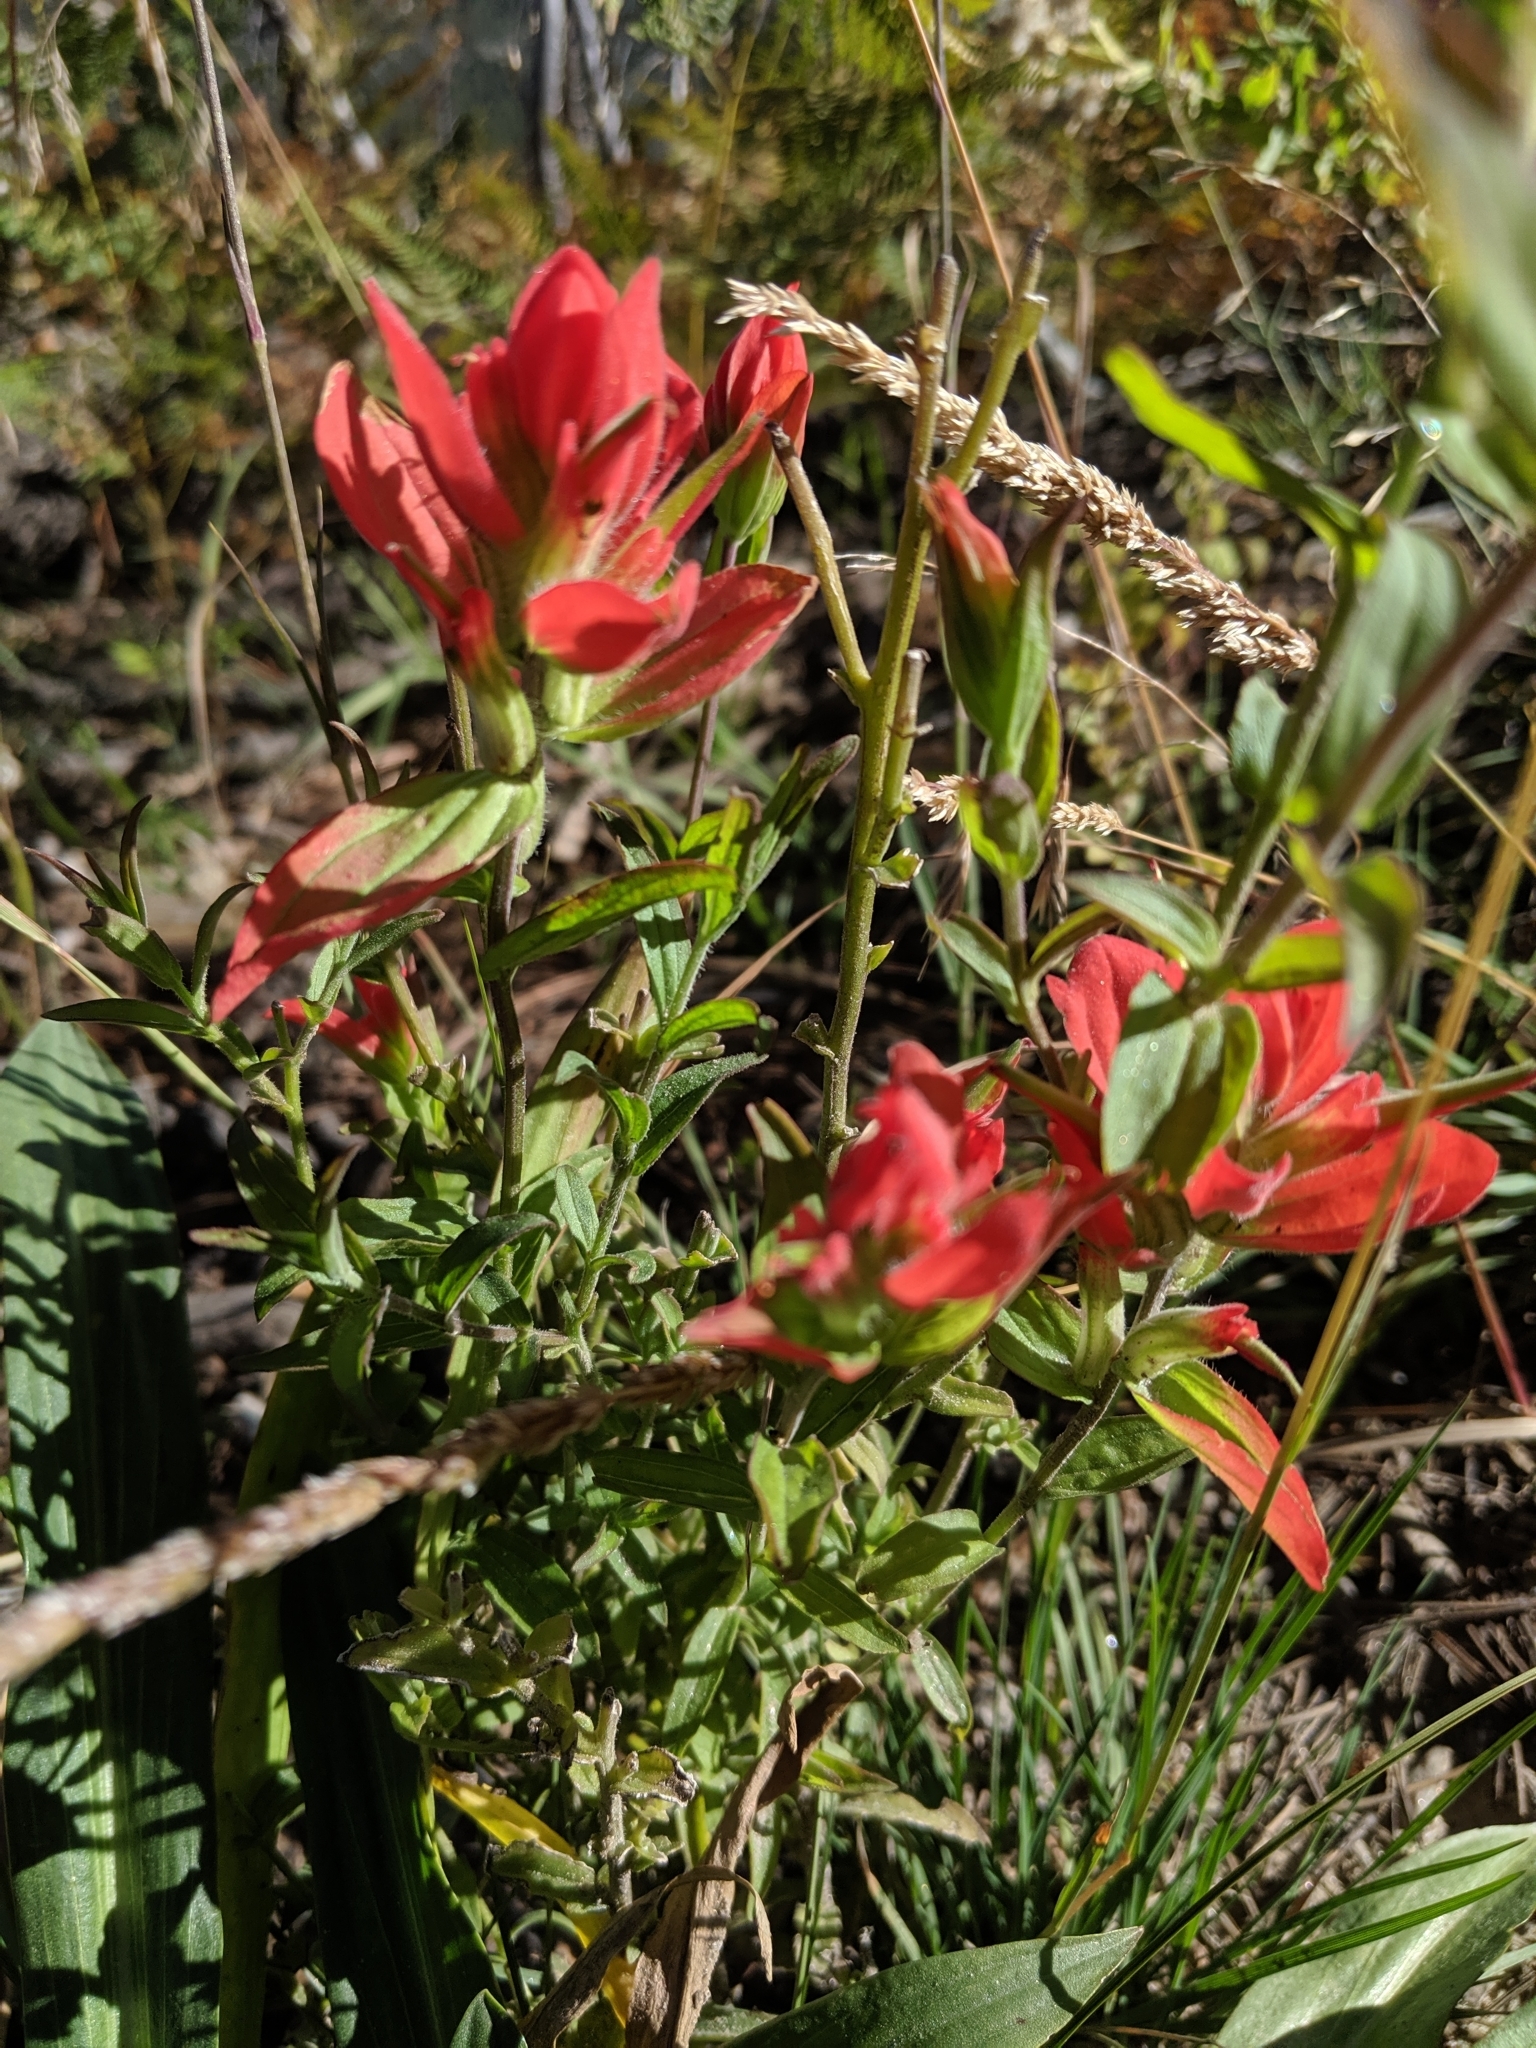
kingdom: Plantae
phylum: Tracheophyta
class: Magnoliopsida
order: Lamiales
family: Orobanchaceae
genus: Castilleja
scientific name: Castilleja nelsonii
